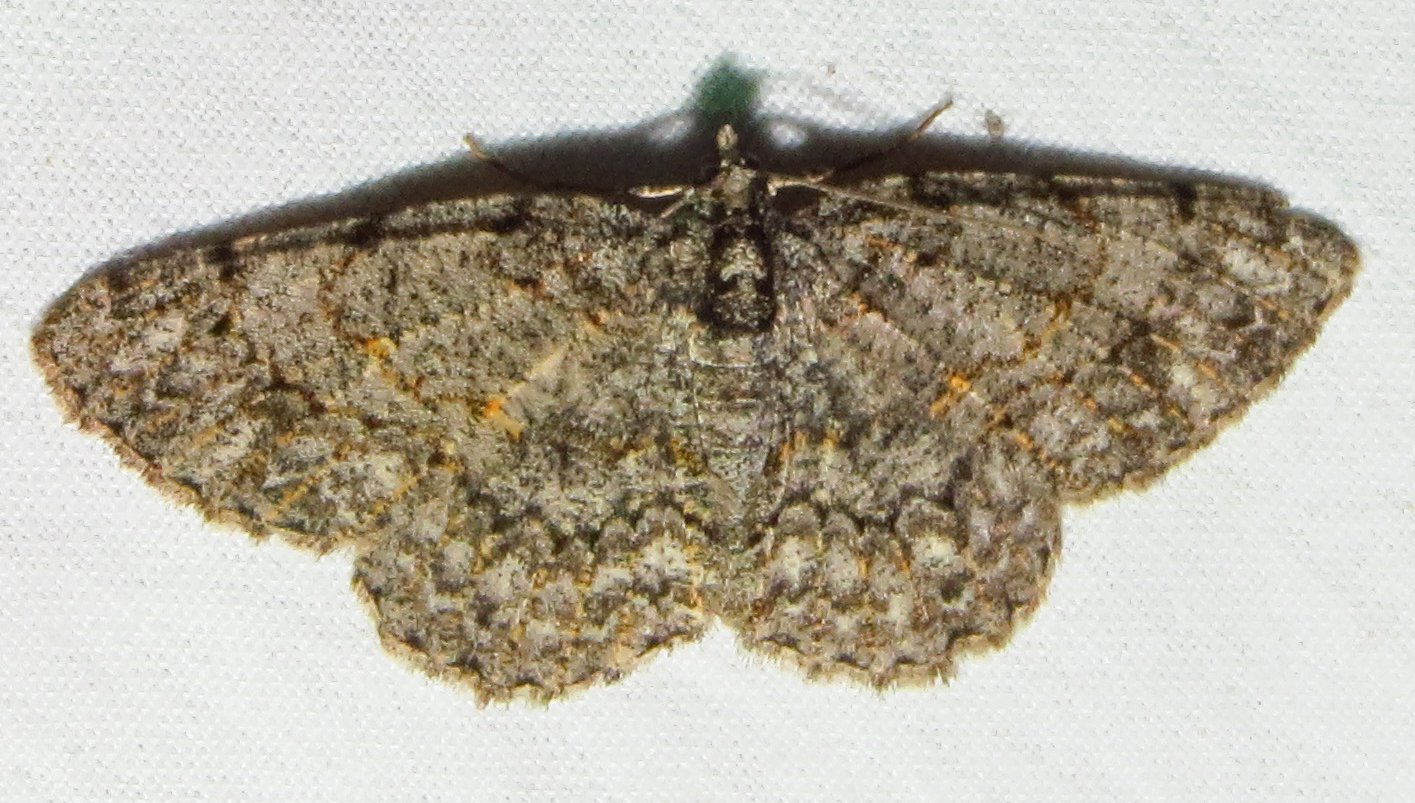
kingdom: Animalia
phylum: Arthropoda
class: Insecta
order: Lepidoptera
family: Geometridae
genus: Protoboarmia
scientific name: Protoboarmia porcelaria
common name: Porcelain gray
